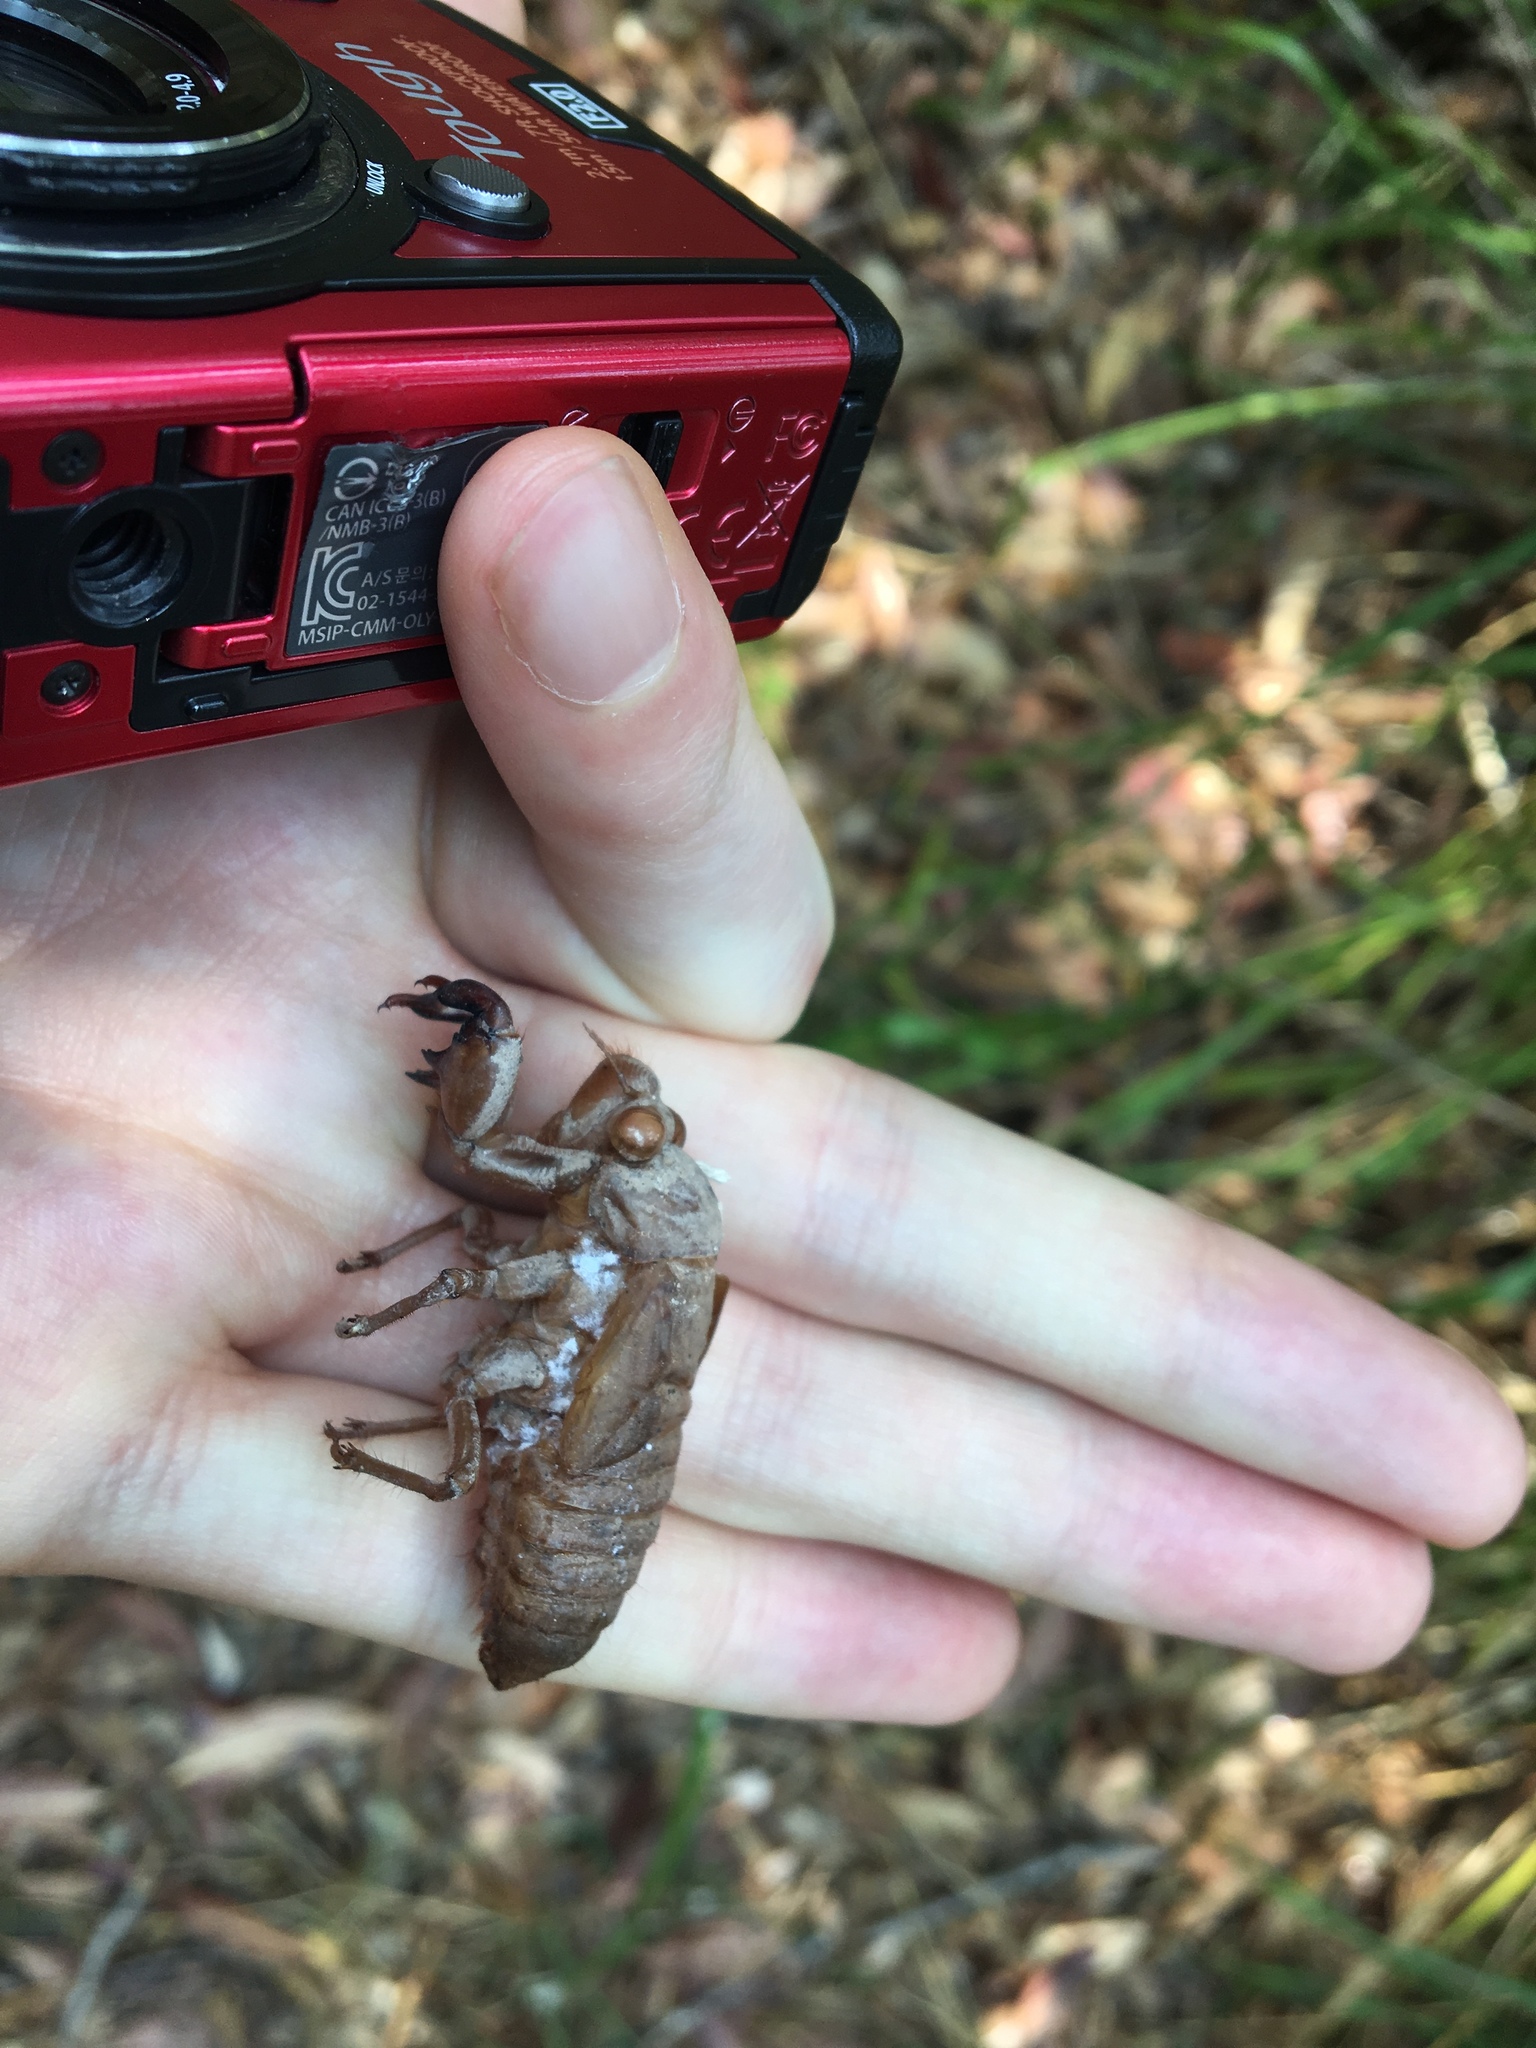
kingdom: Animalia
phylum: Arthropoda
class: Insecta
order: Hemiptera
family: Cicadidae
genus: Cyclochila
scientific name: Cyclochila australasiae
